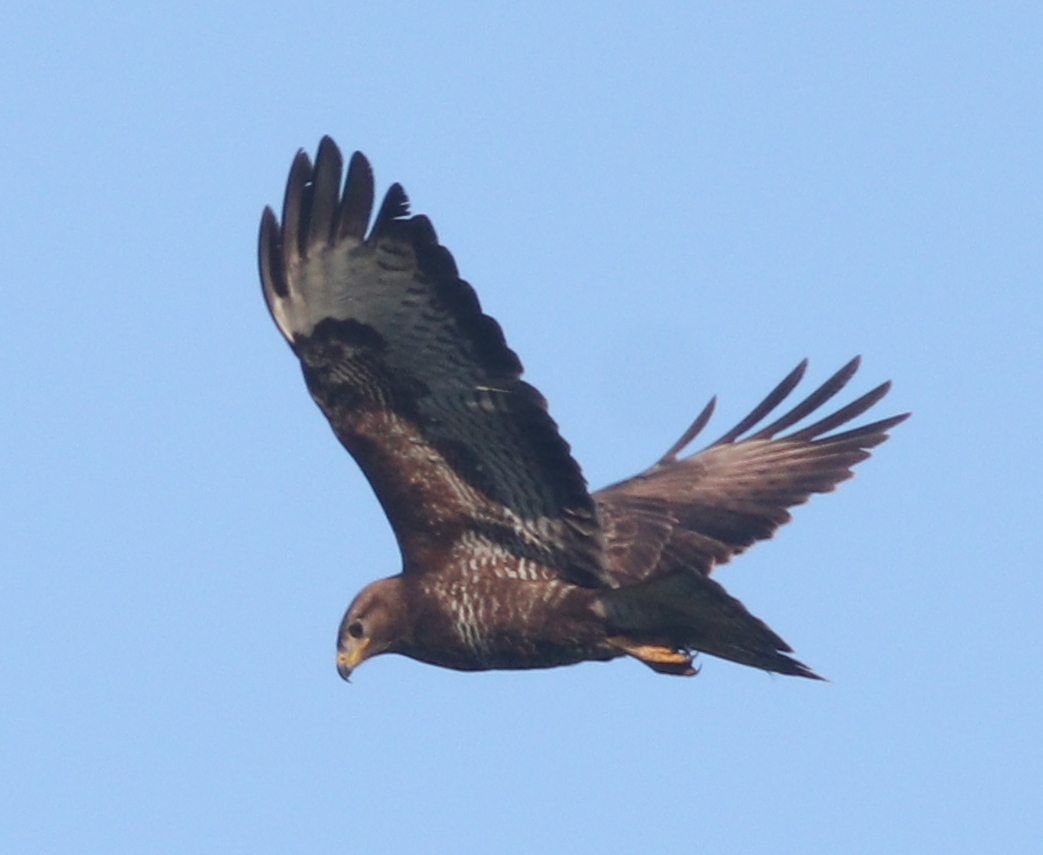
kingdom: Animalia
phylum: Chordata
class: Aves
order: Accipitriformes
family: Accipitridae
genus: Buteo
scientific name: Buteo buteo
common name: Common buzzard
